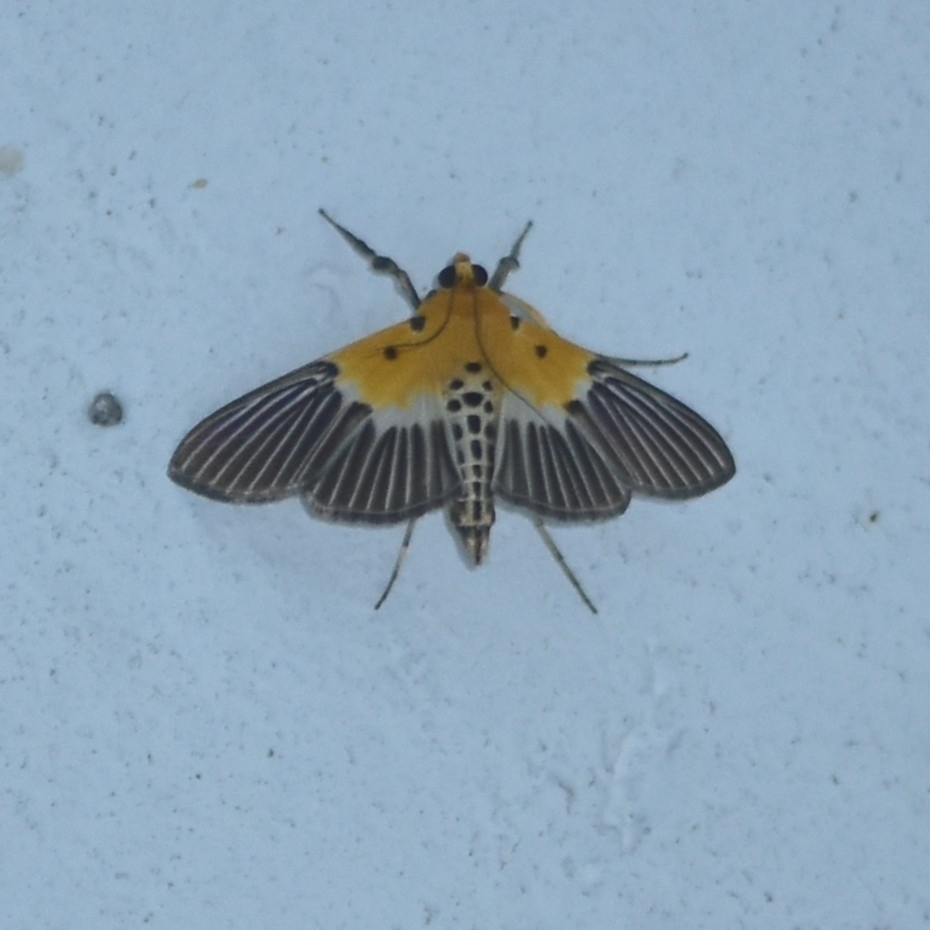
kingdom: Animalia
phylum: Arthropoda
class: Insecta
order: Lepidoptera
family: Crambidae
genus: Nevrina
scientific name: Nevrina procopia
